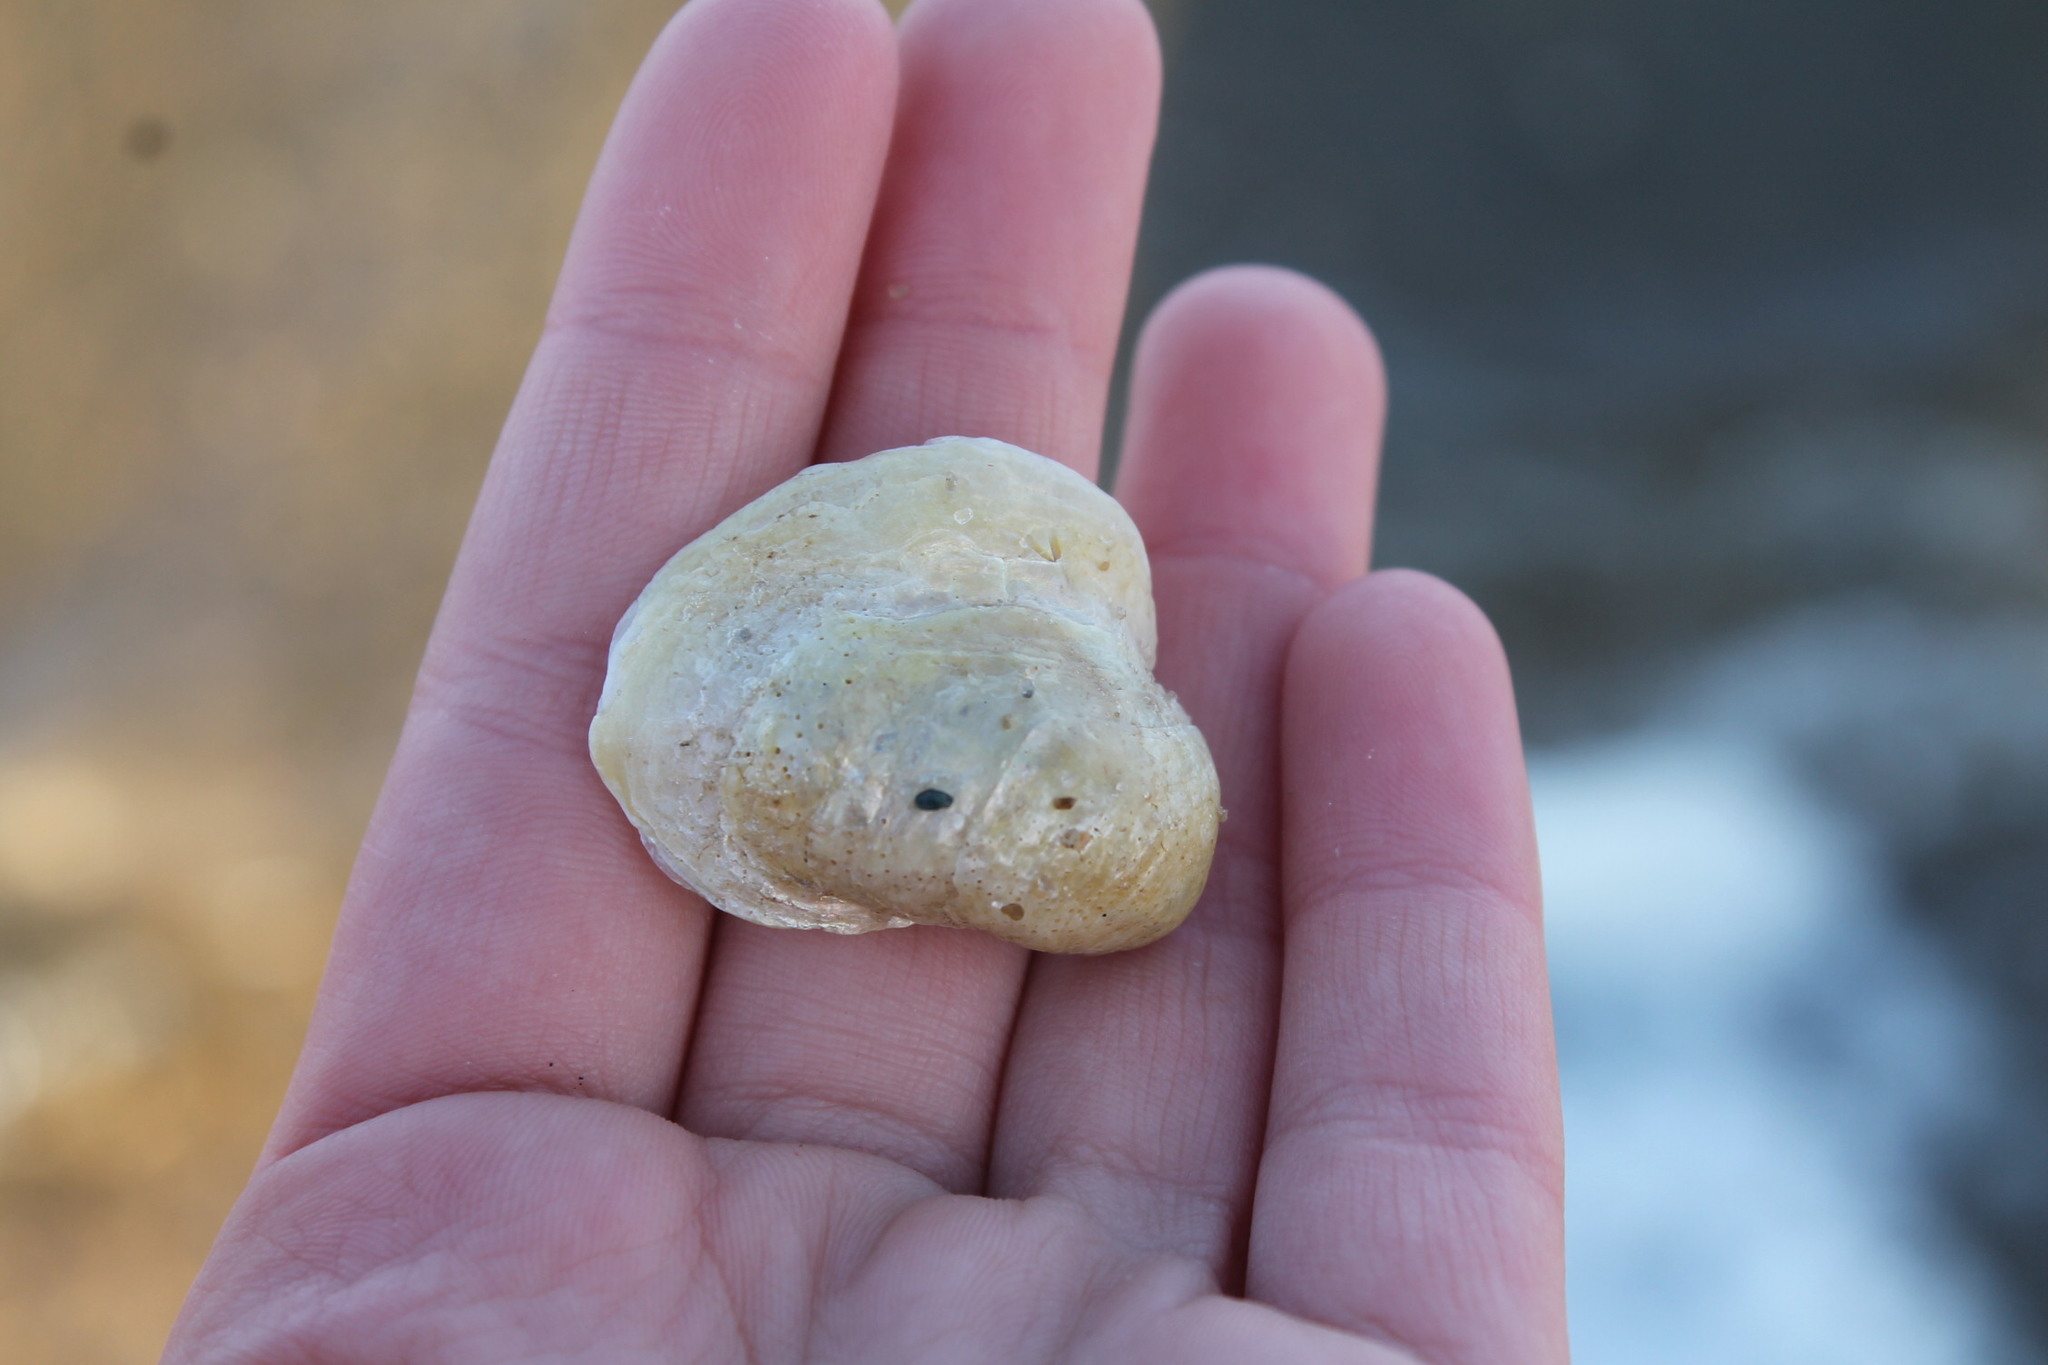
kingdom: Animalia
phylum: Mollusca
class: Bivalvia
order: Pectinida
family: Anomiidae
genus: Anomia
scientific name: Anomia simplex
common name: Common jingle shell
